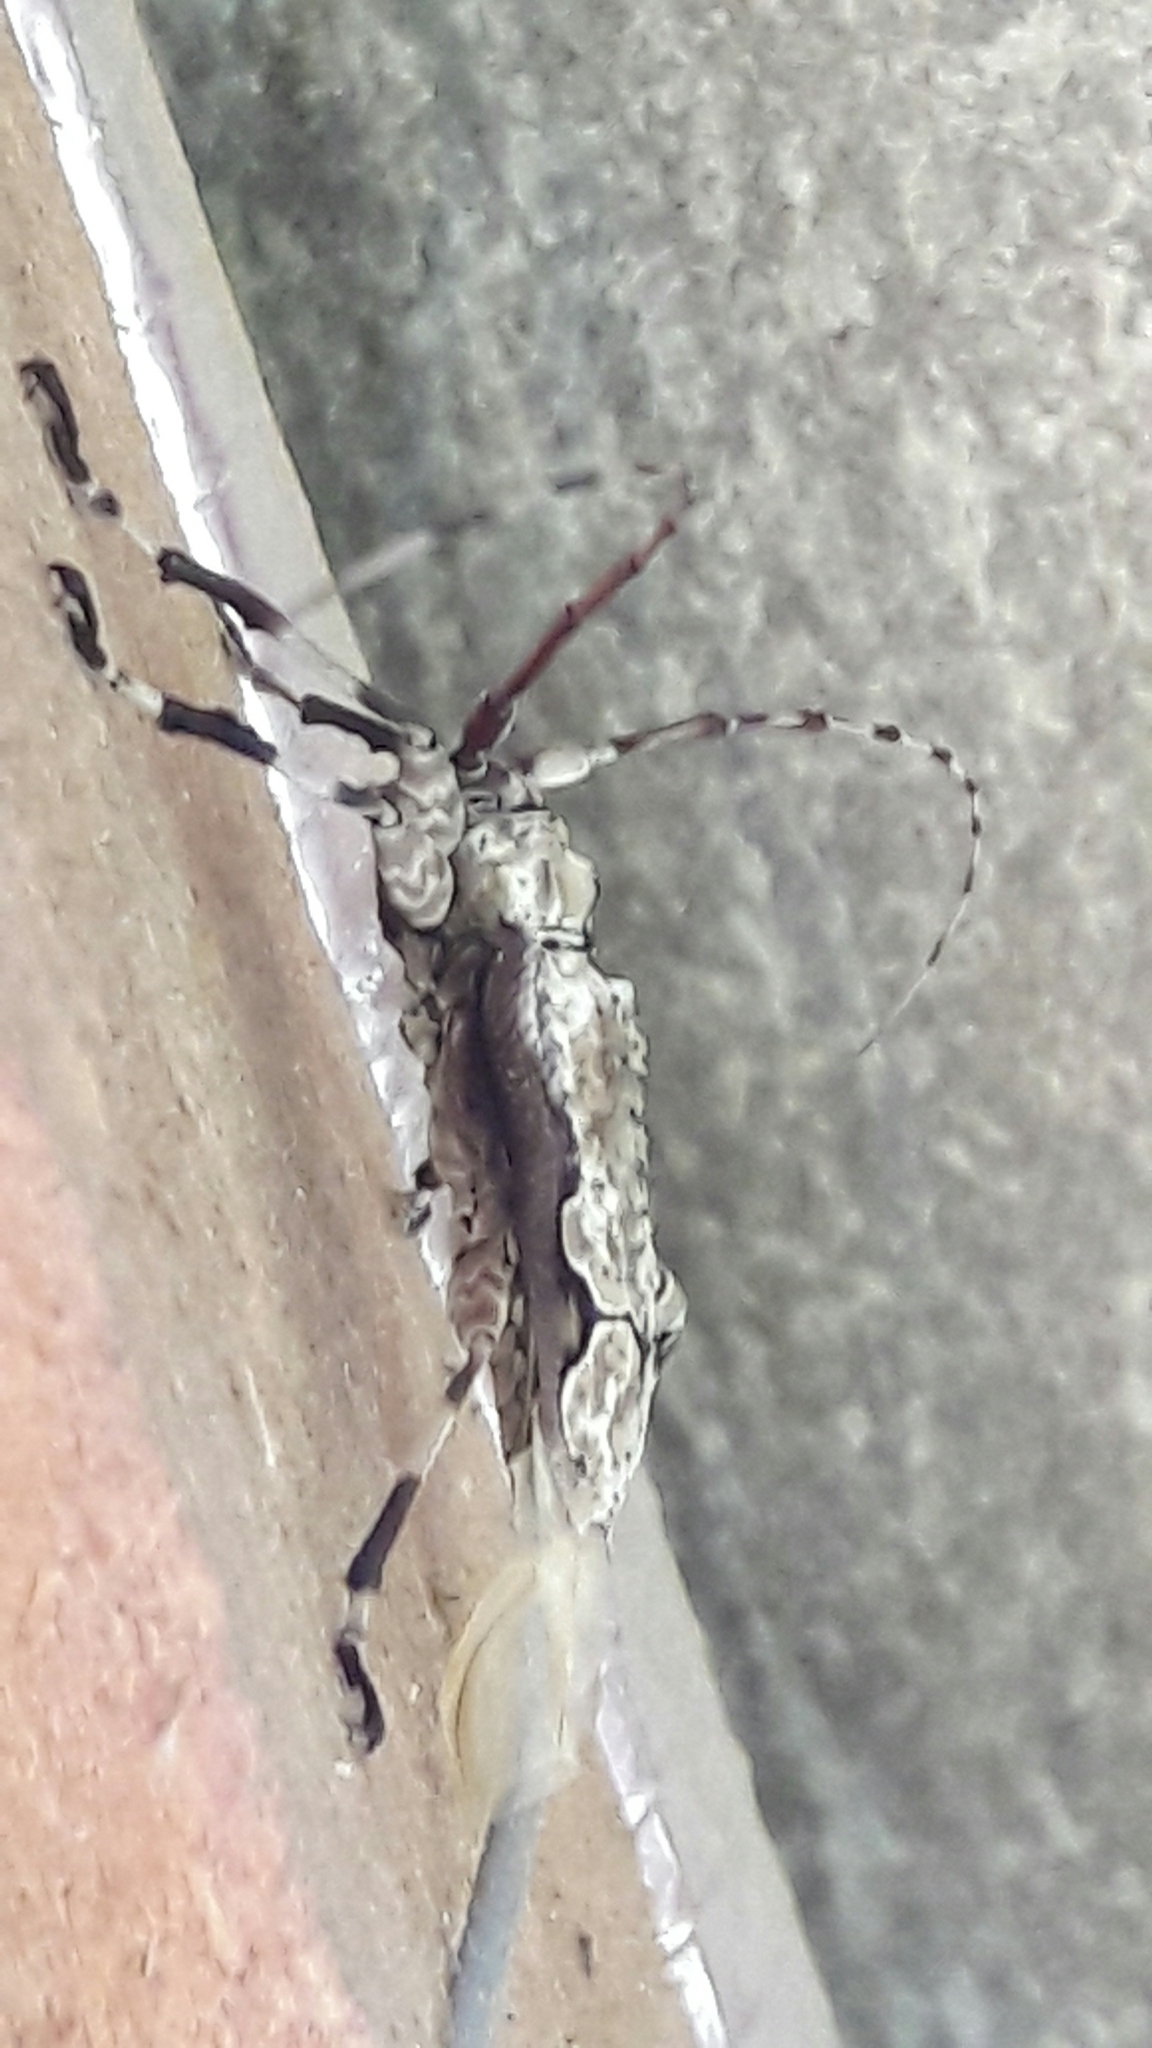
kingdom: Animalia
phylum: Arthropoda
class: Insecta
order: Coleoptera
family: Cerambycidae
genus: Oreodera
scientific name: Oreodera glauca
